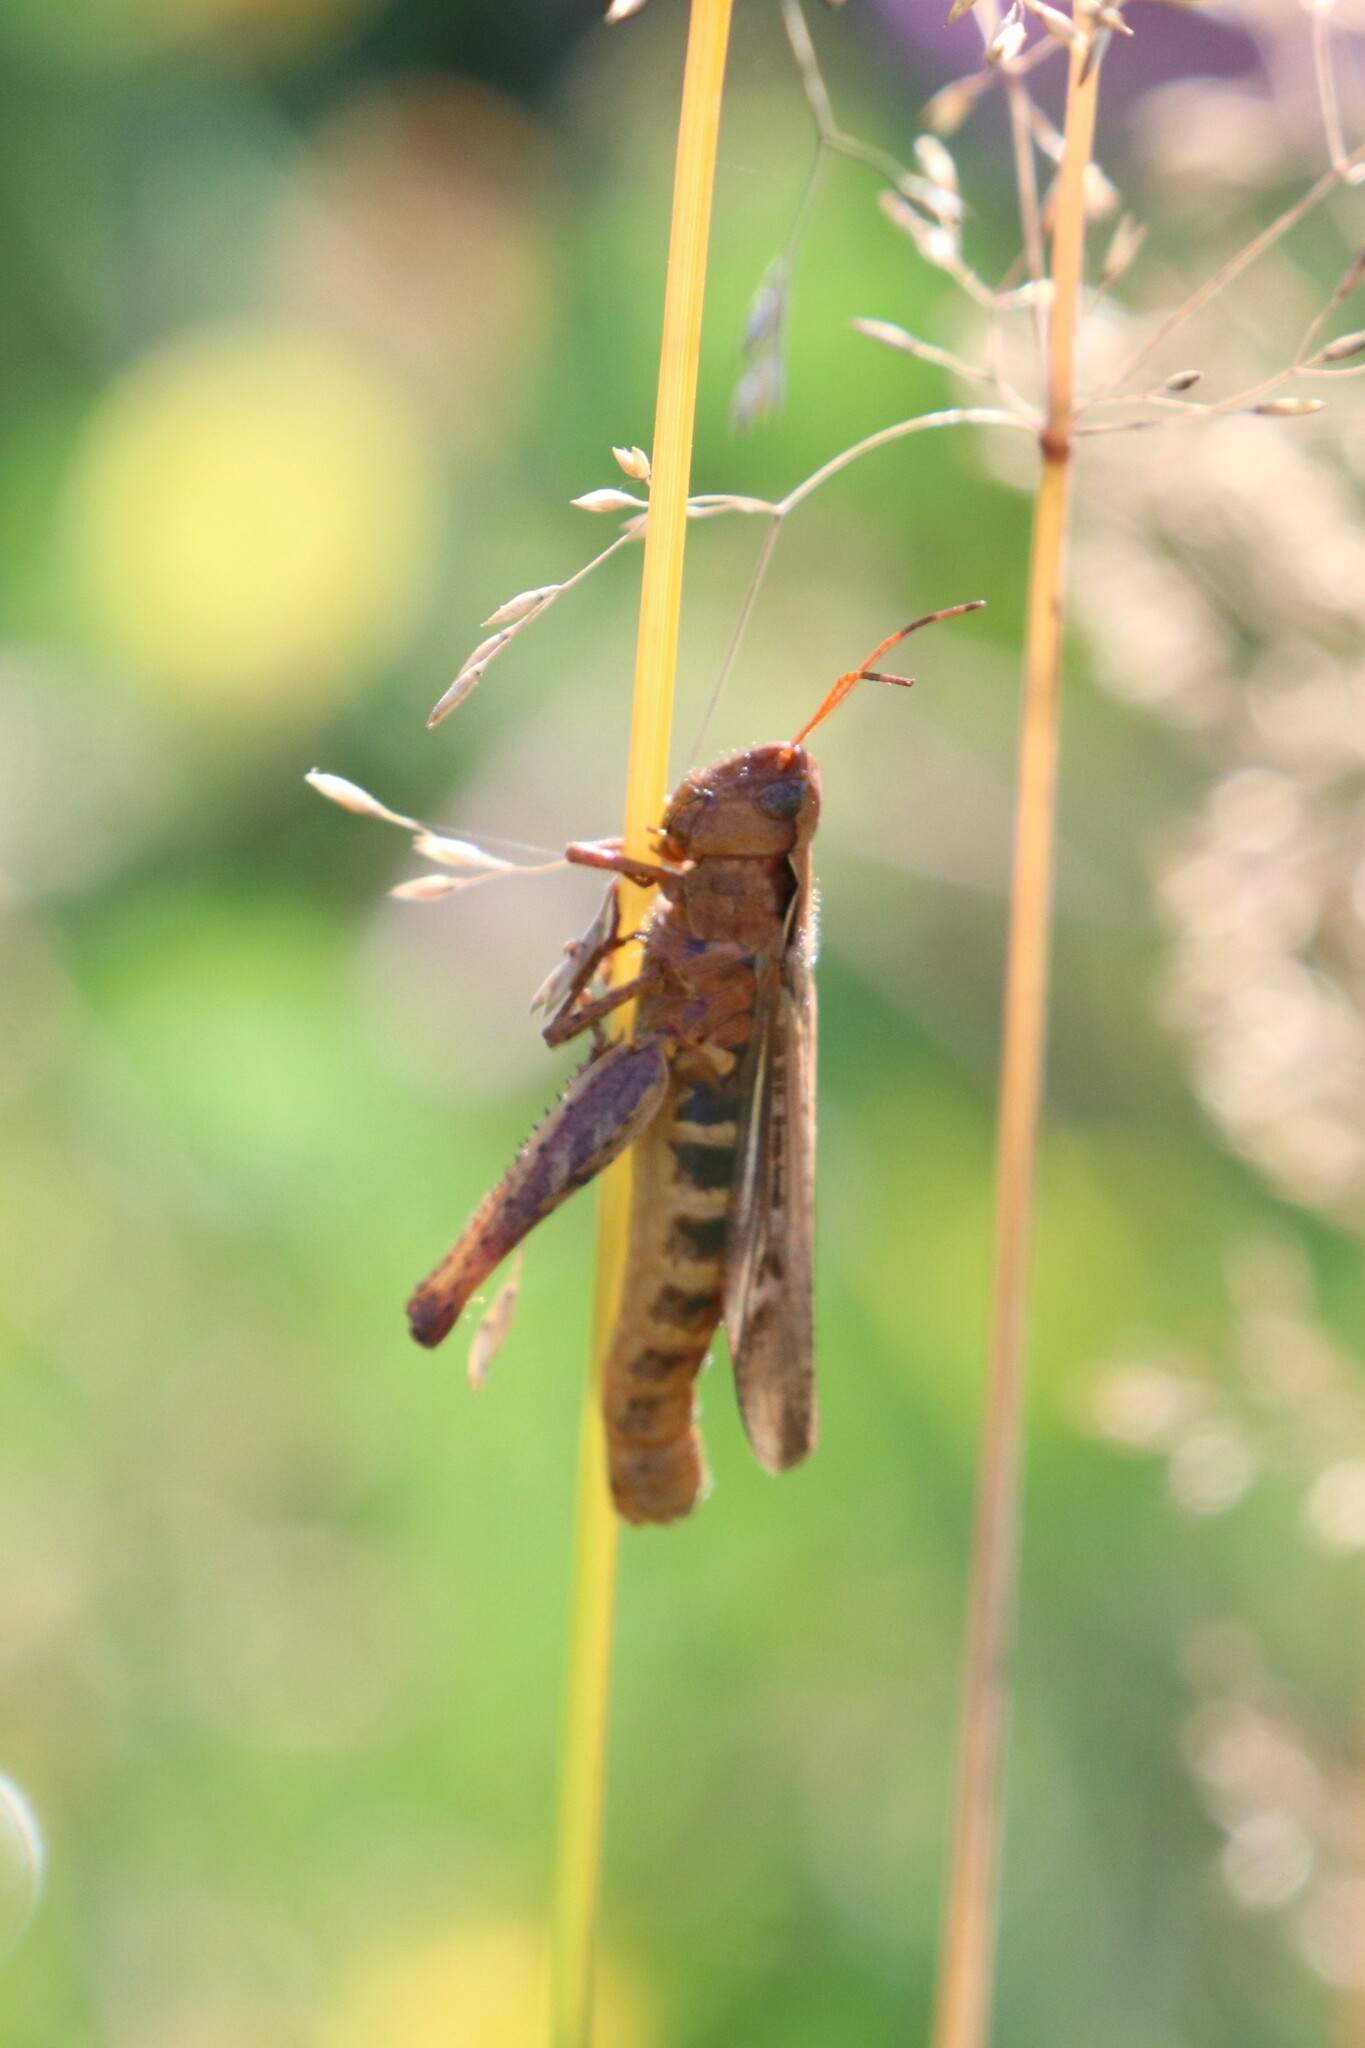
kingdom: Animalia
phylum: Arthropoda
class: Insecta
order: Orthoptera
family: Acrididae
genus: Chorthippus
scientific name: Chorthippus biguttulus
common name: Bow-winged grasshopper
